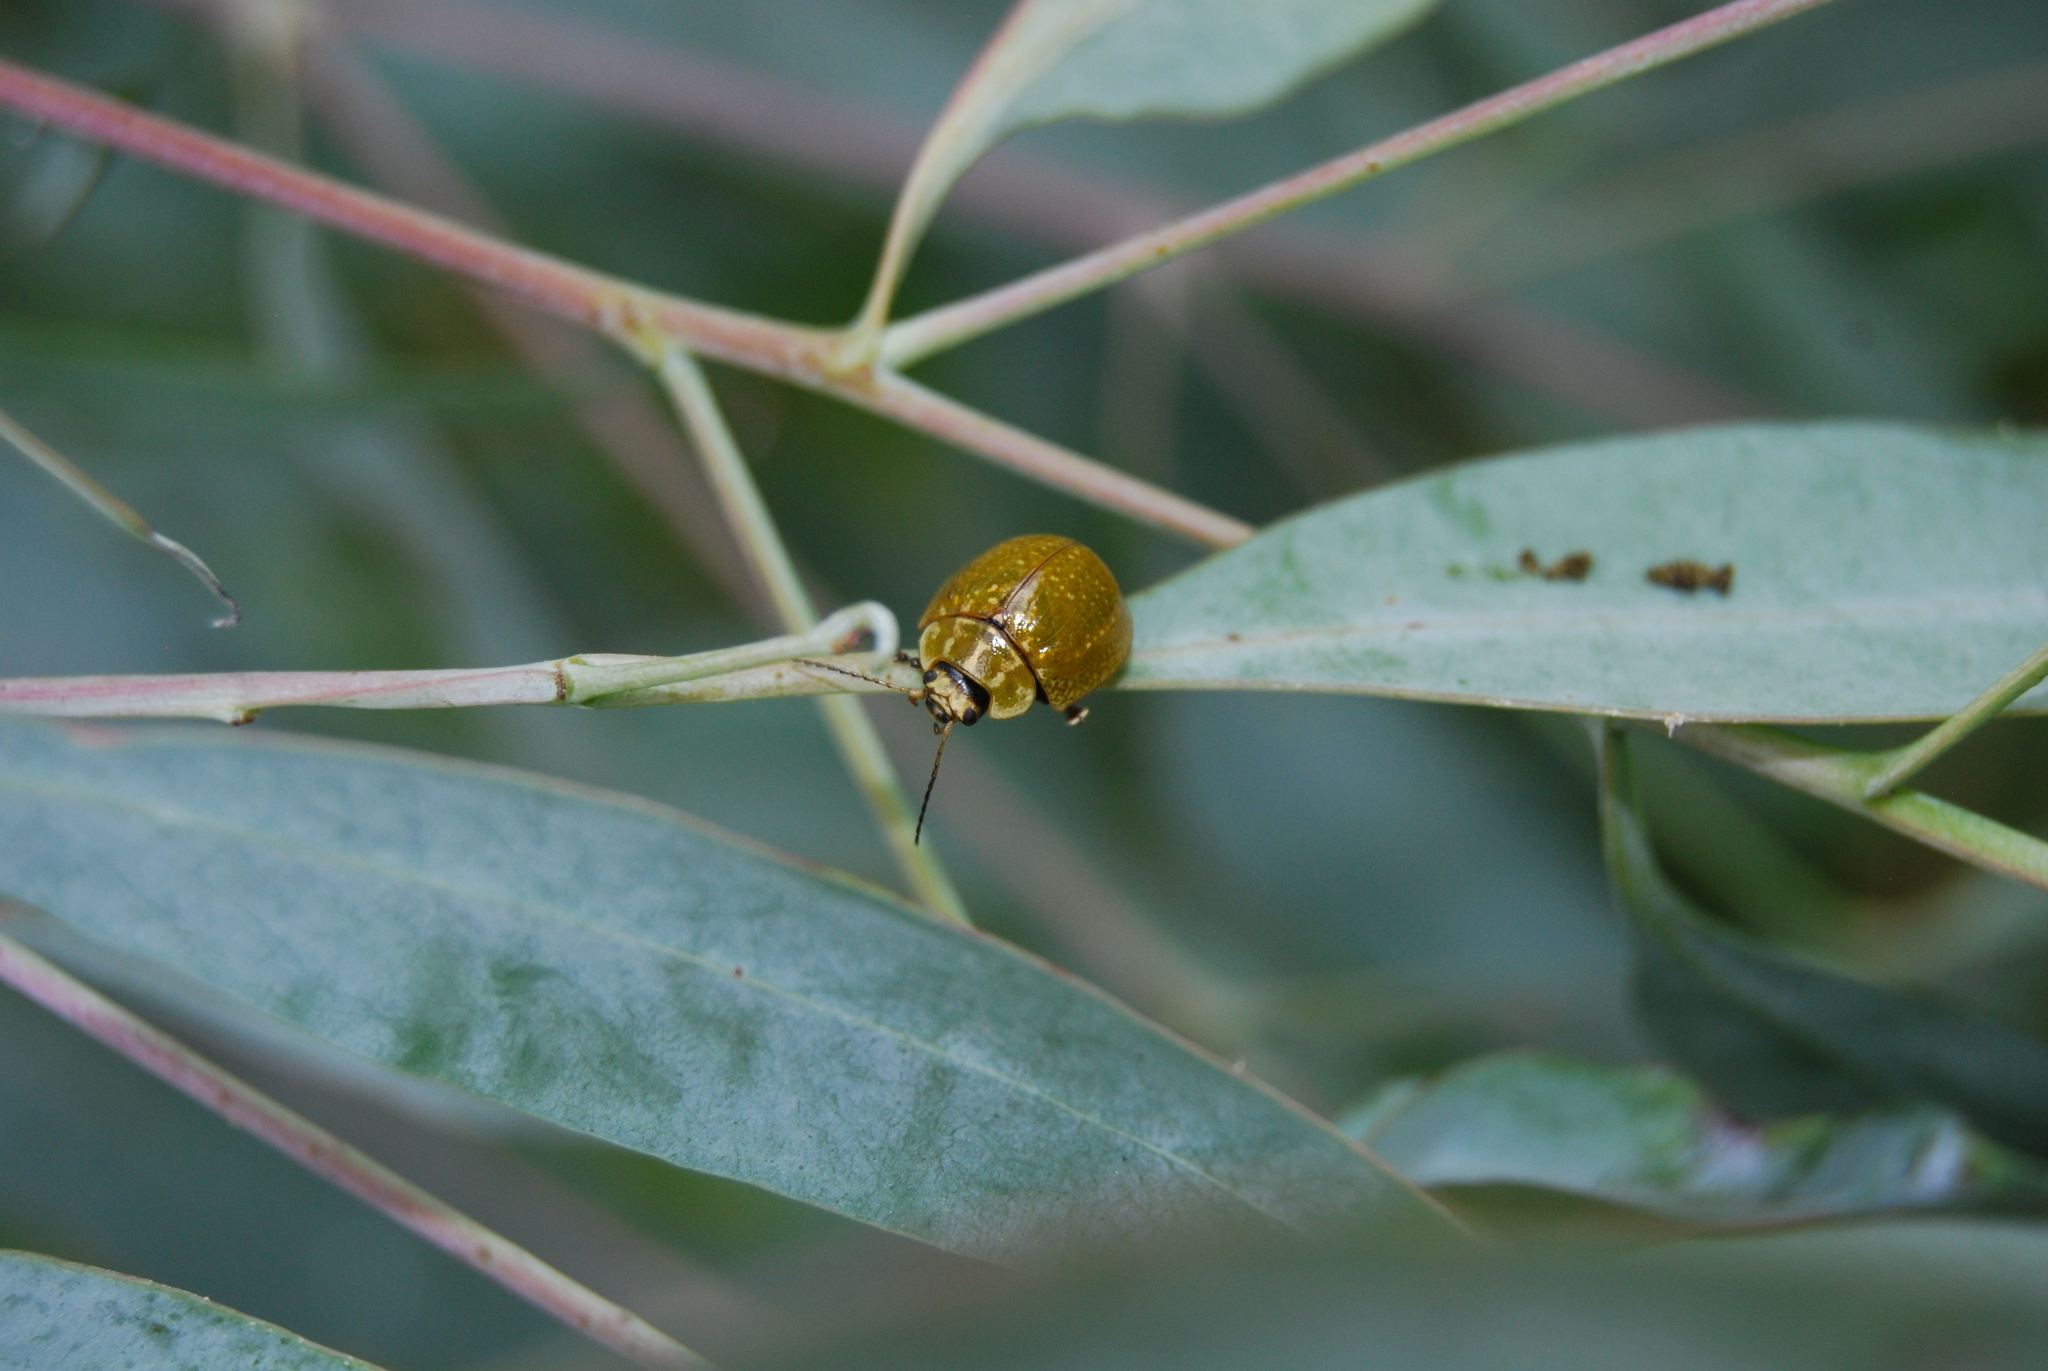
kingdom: Animalia
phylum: Arthropoda
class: Insecta
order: Coleoptera
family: Chrysomelidae
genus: Paropsisterna
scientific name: Paropsisterna cloelia
